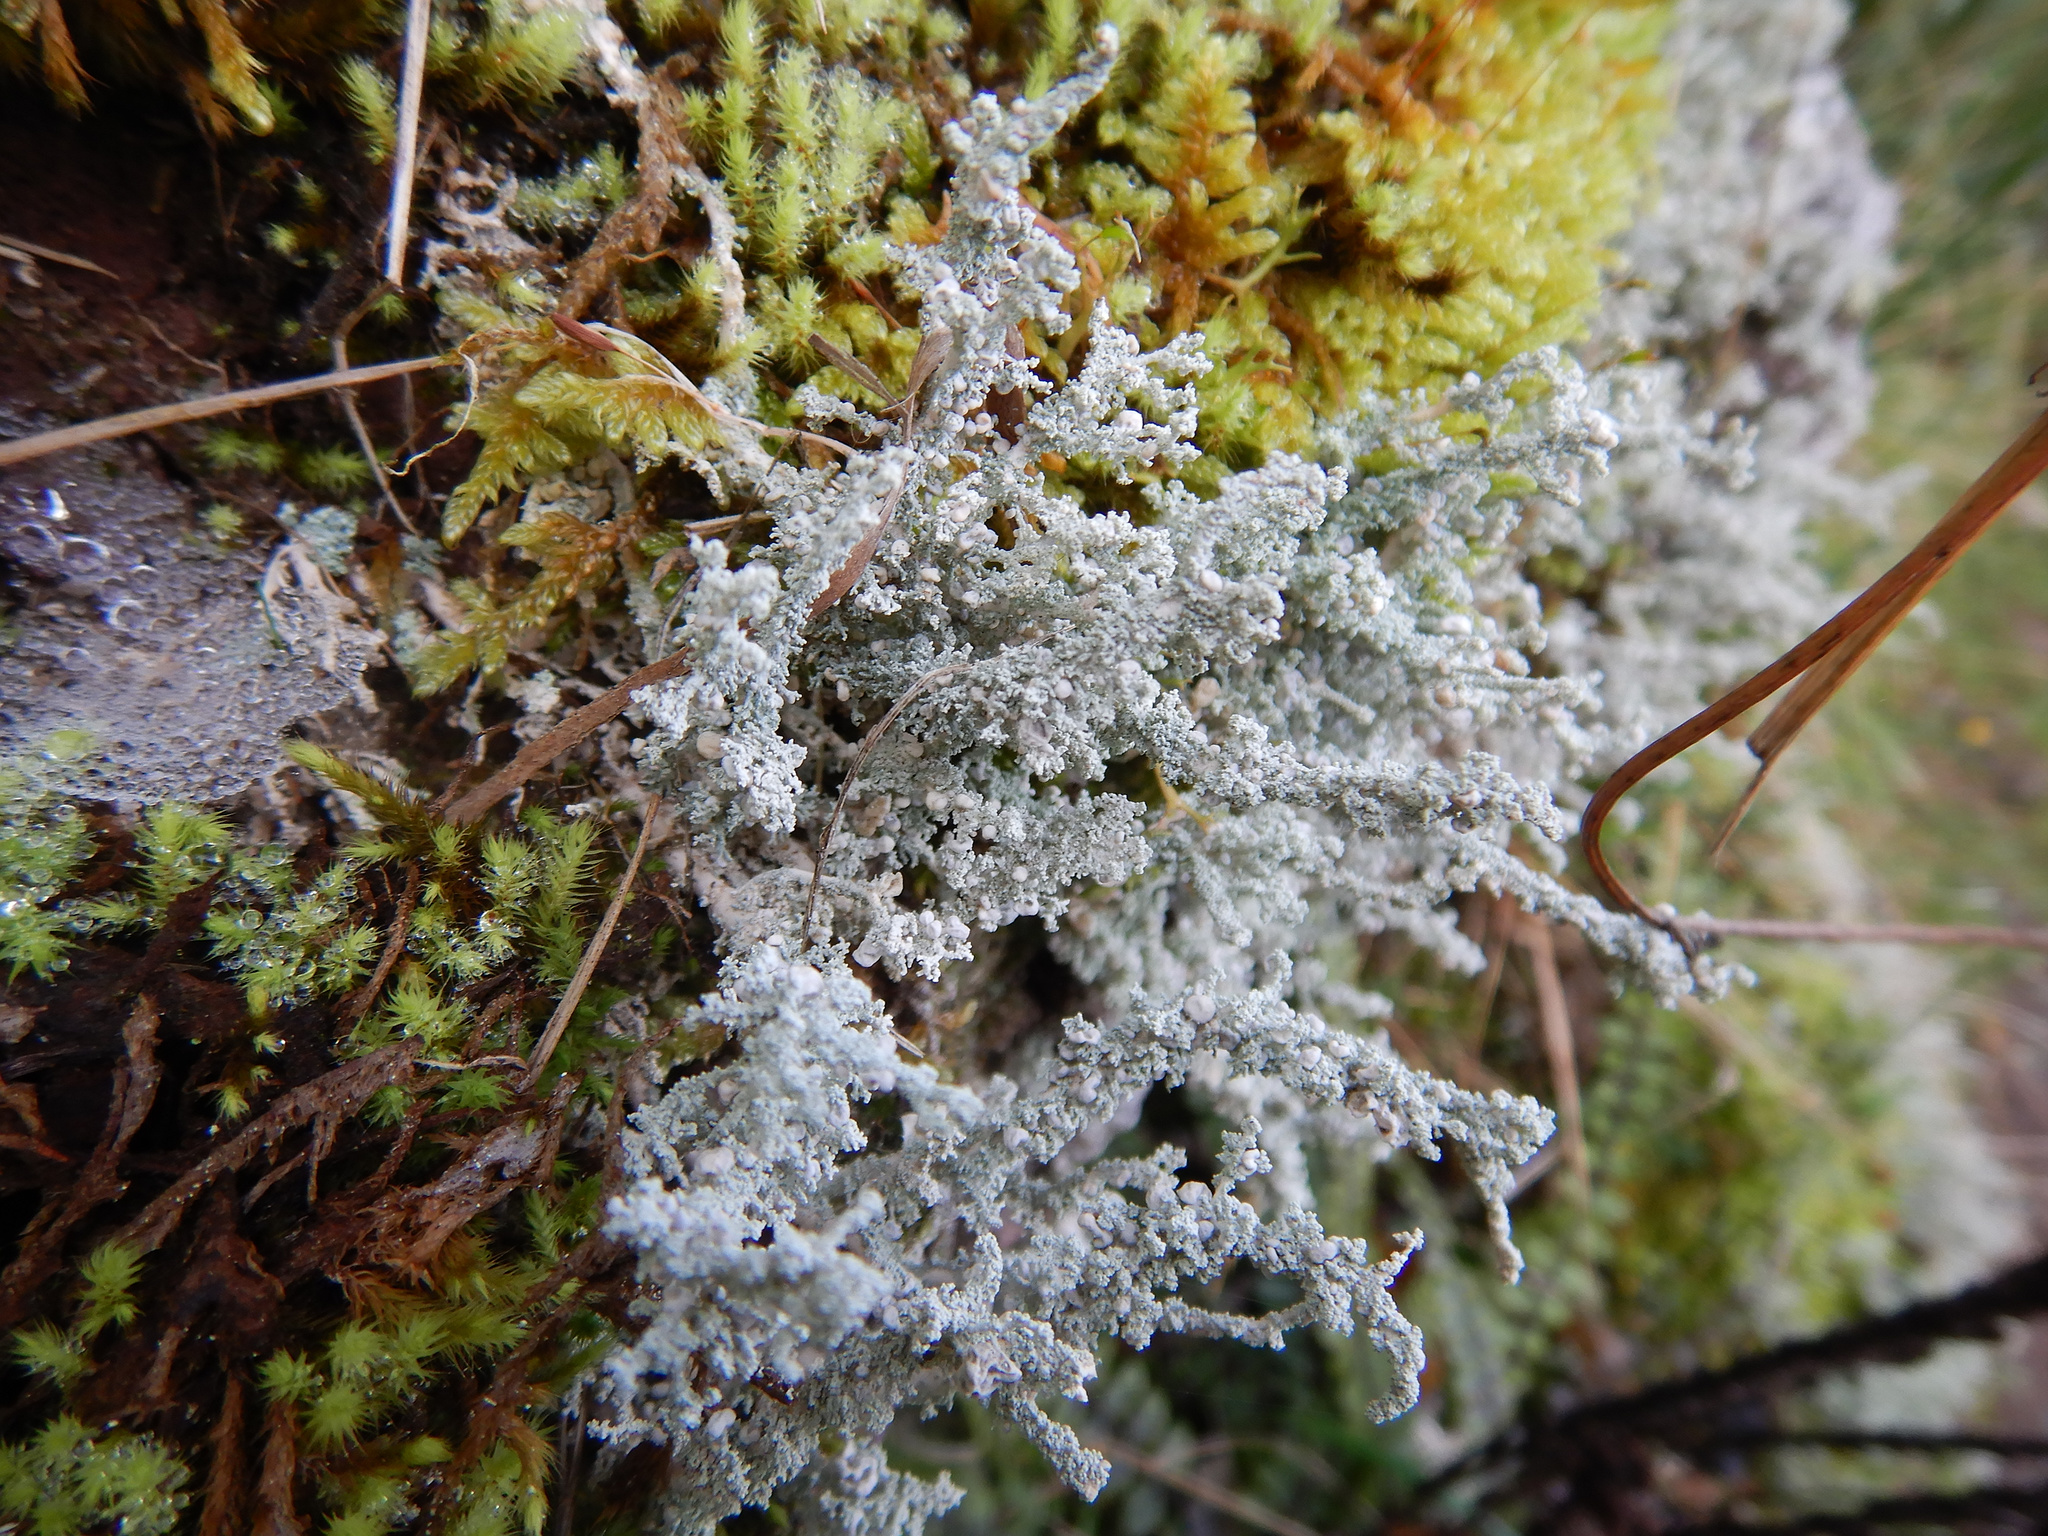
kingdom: Fungi
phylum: Ascomycota
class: Lecanoromycetes
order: Lecanorales
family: Stereocaulaceae
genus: Stereocaulon
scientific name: Stereocaulon ramulosum
